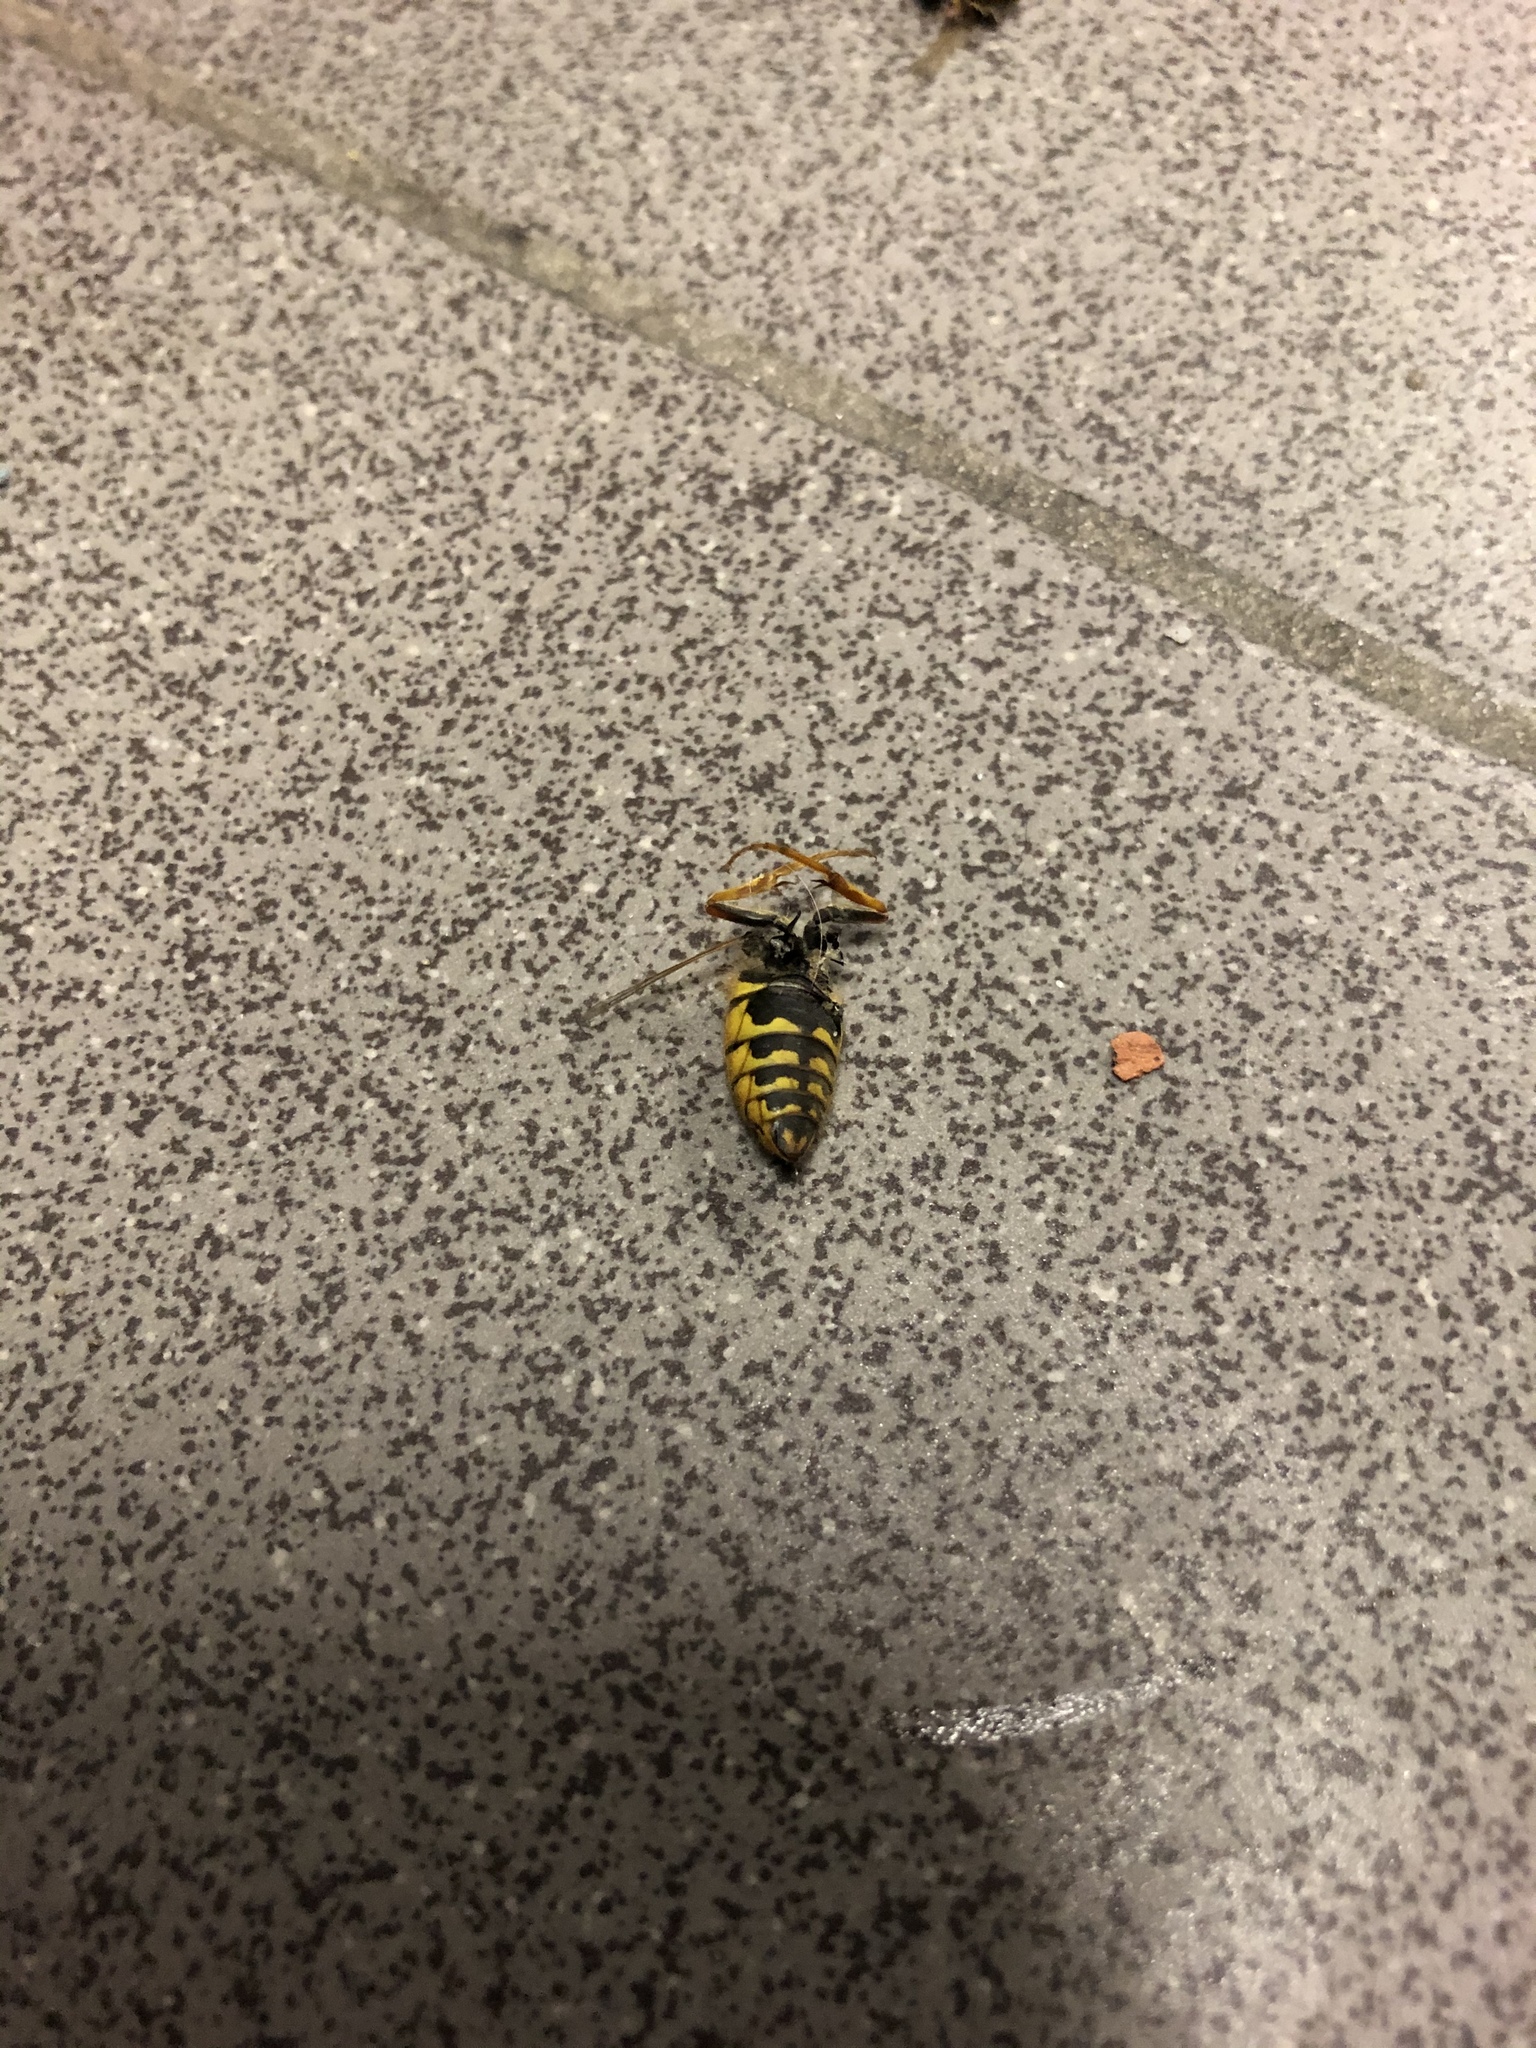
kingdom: Animalia
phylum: Arthropoda
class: Insecta
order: Hymenoptera
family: Vespidae
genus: Vespula
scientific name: Vespula
